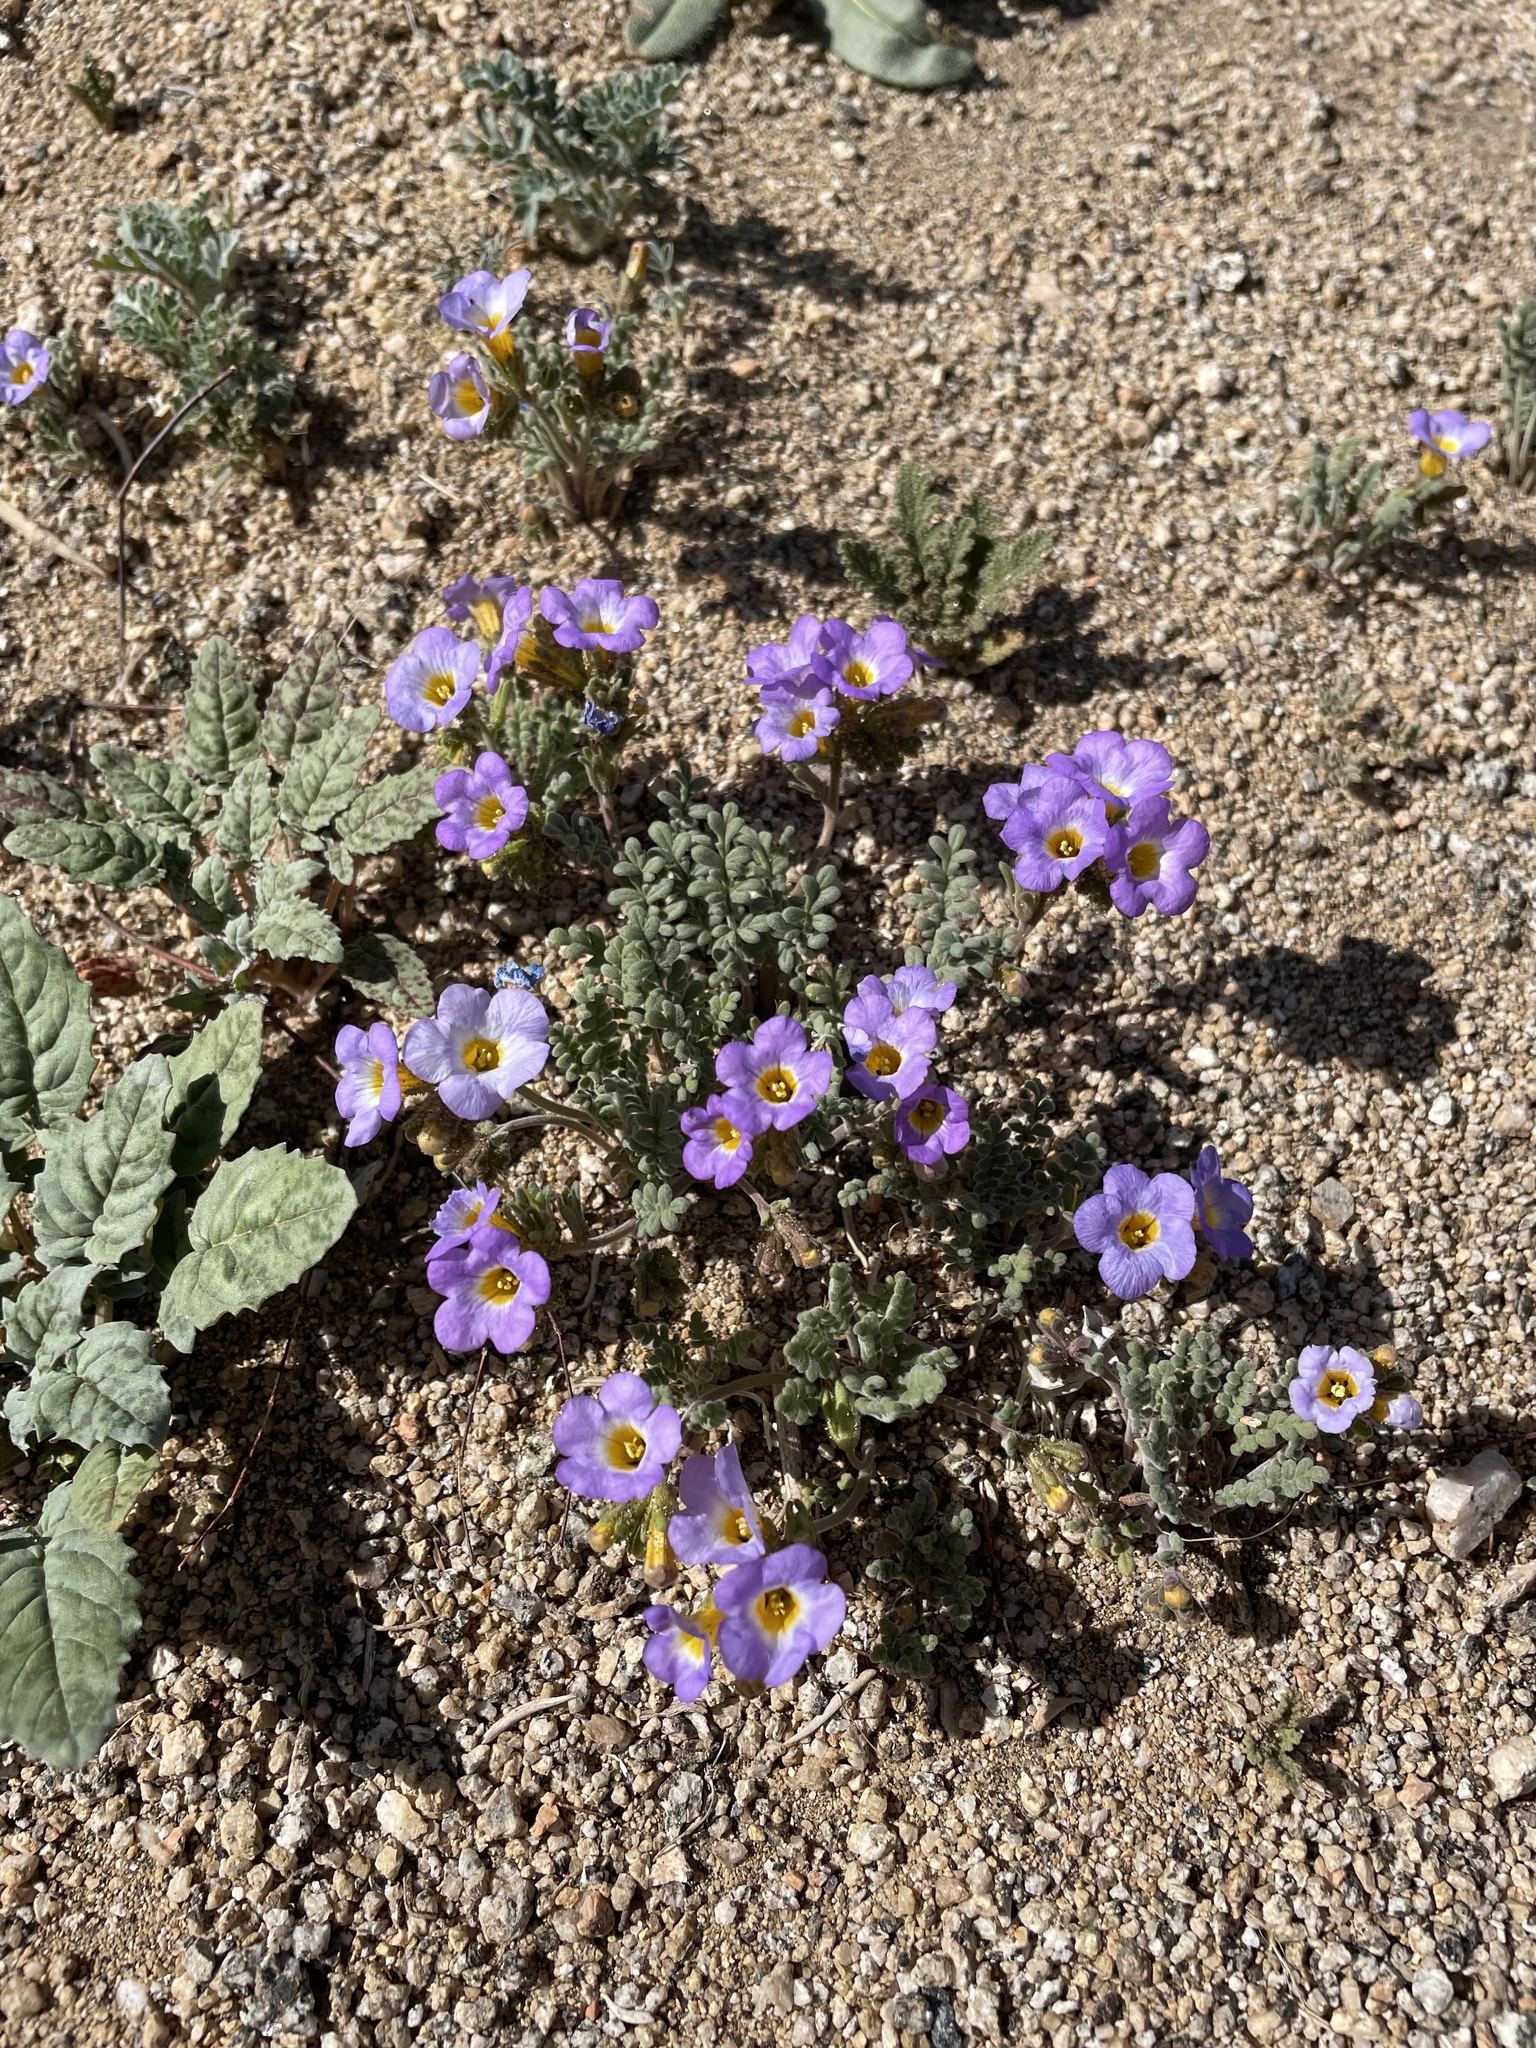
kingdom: Plantae
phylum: Tracheophyta
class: Magnoliopsida
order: Boraginales
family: Hydrophyllaceae
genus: Phacelia
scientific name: Phacelia fremontii
